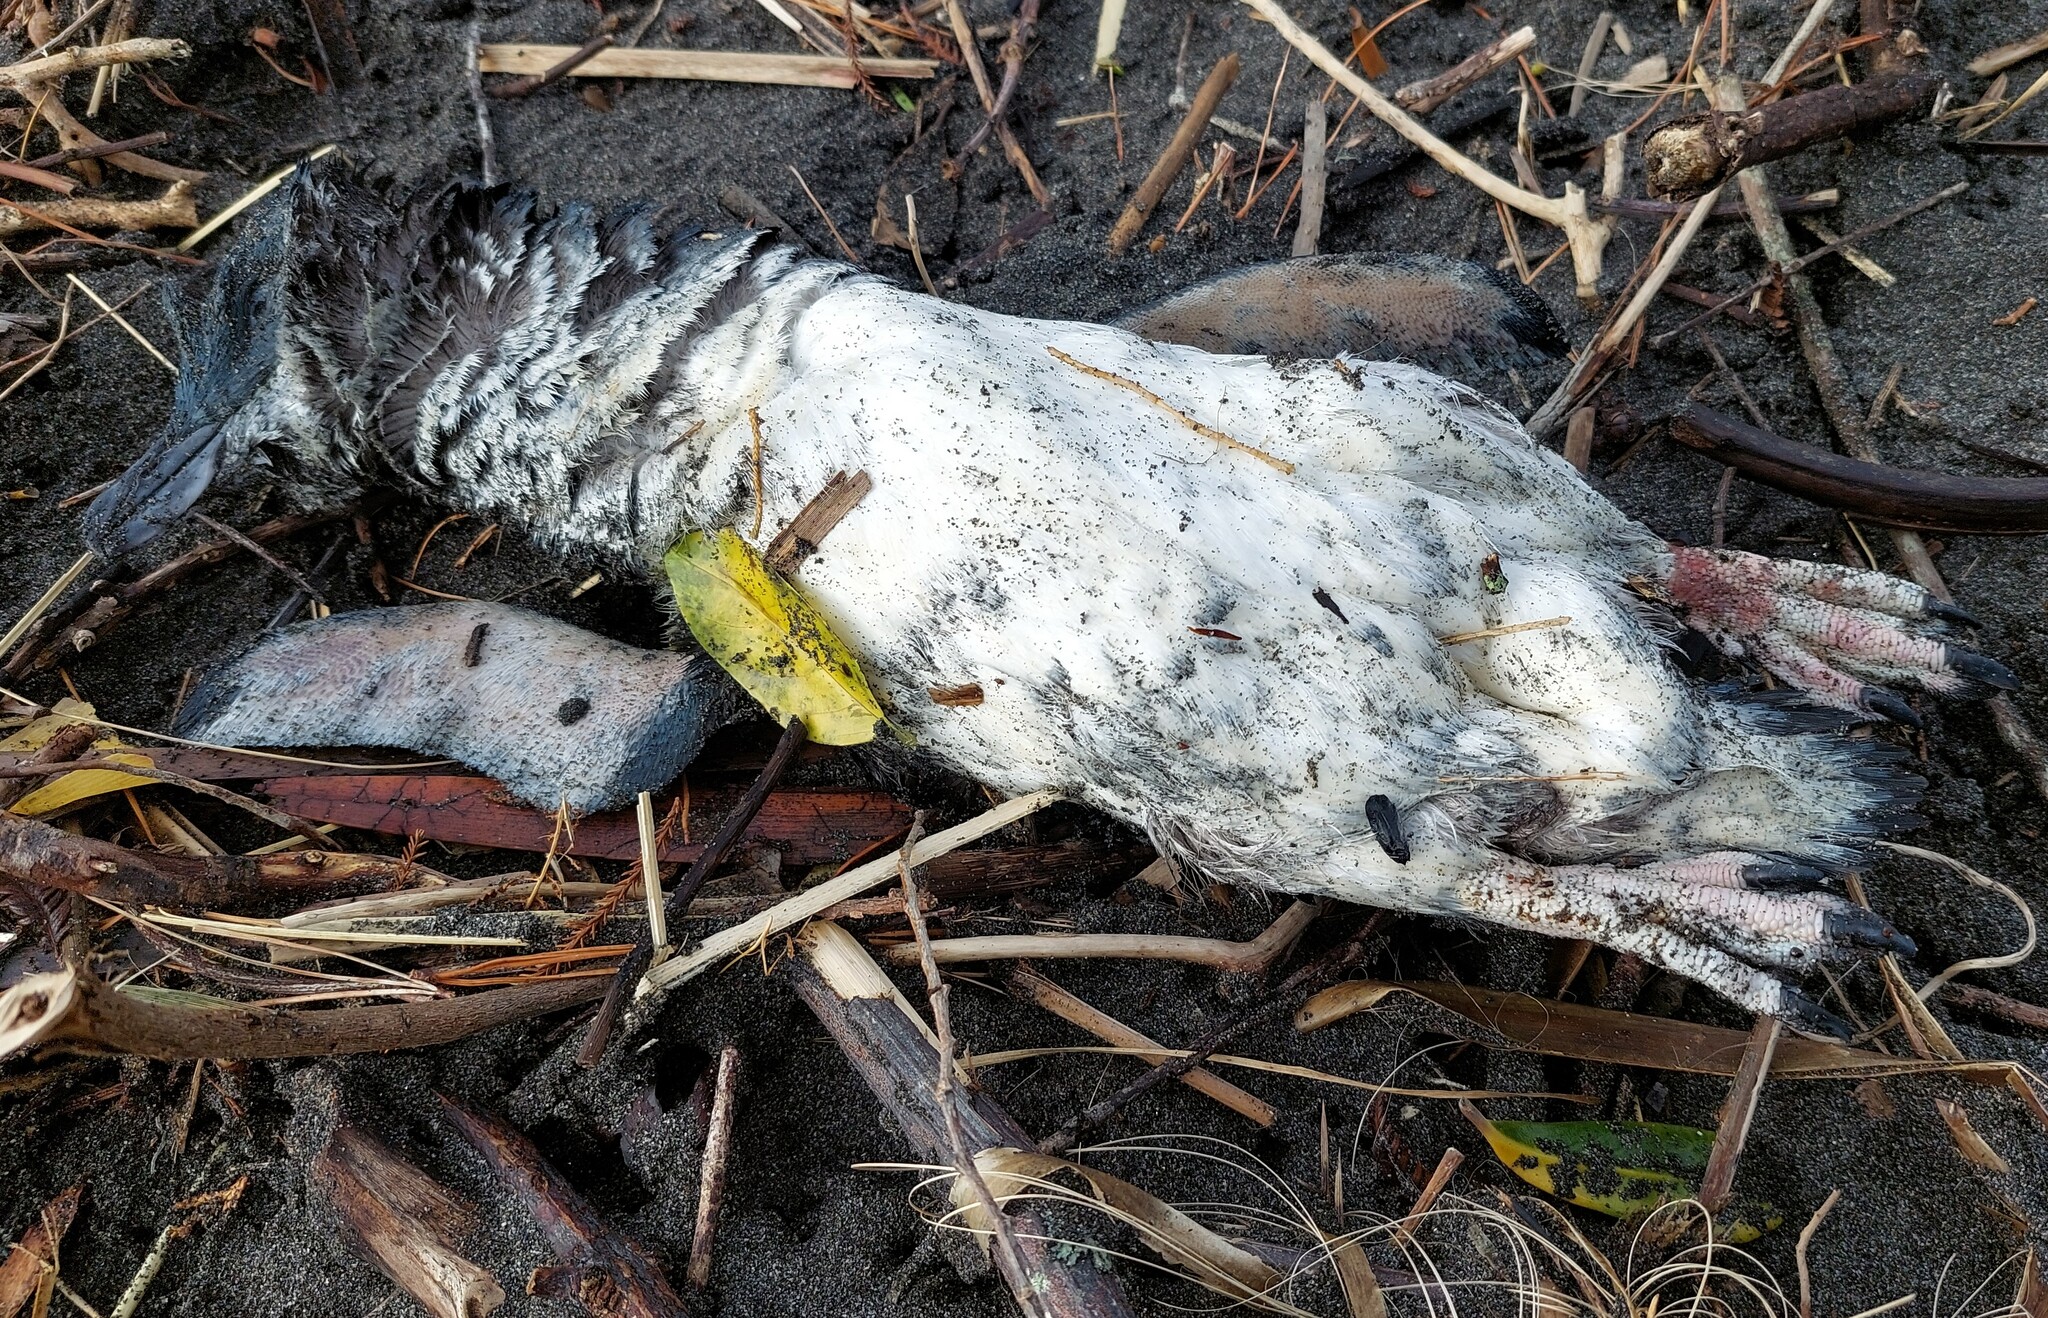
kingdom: Animalia
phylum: Chordata
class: Aves
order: Sphenisciformes
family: Spheniscidae
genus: Eudyptula
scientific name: Eudyptula minor
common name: Little penguin
